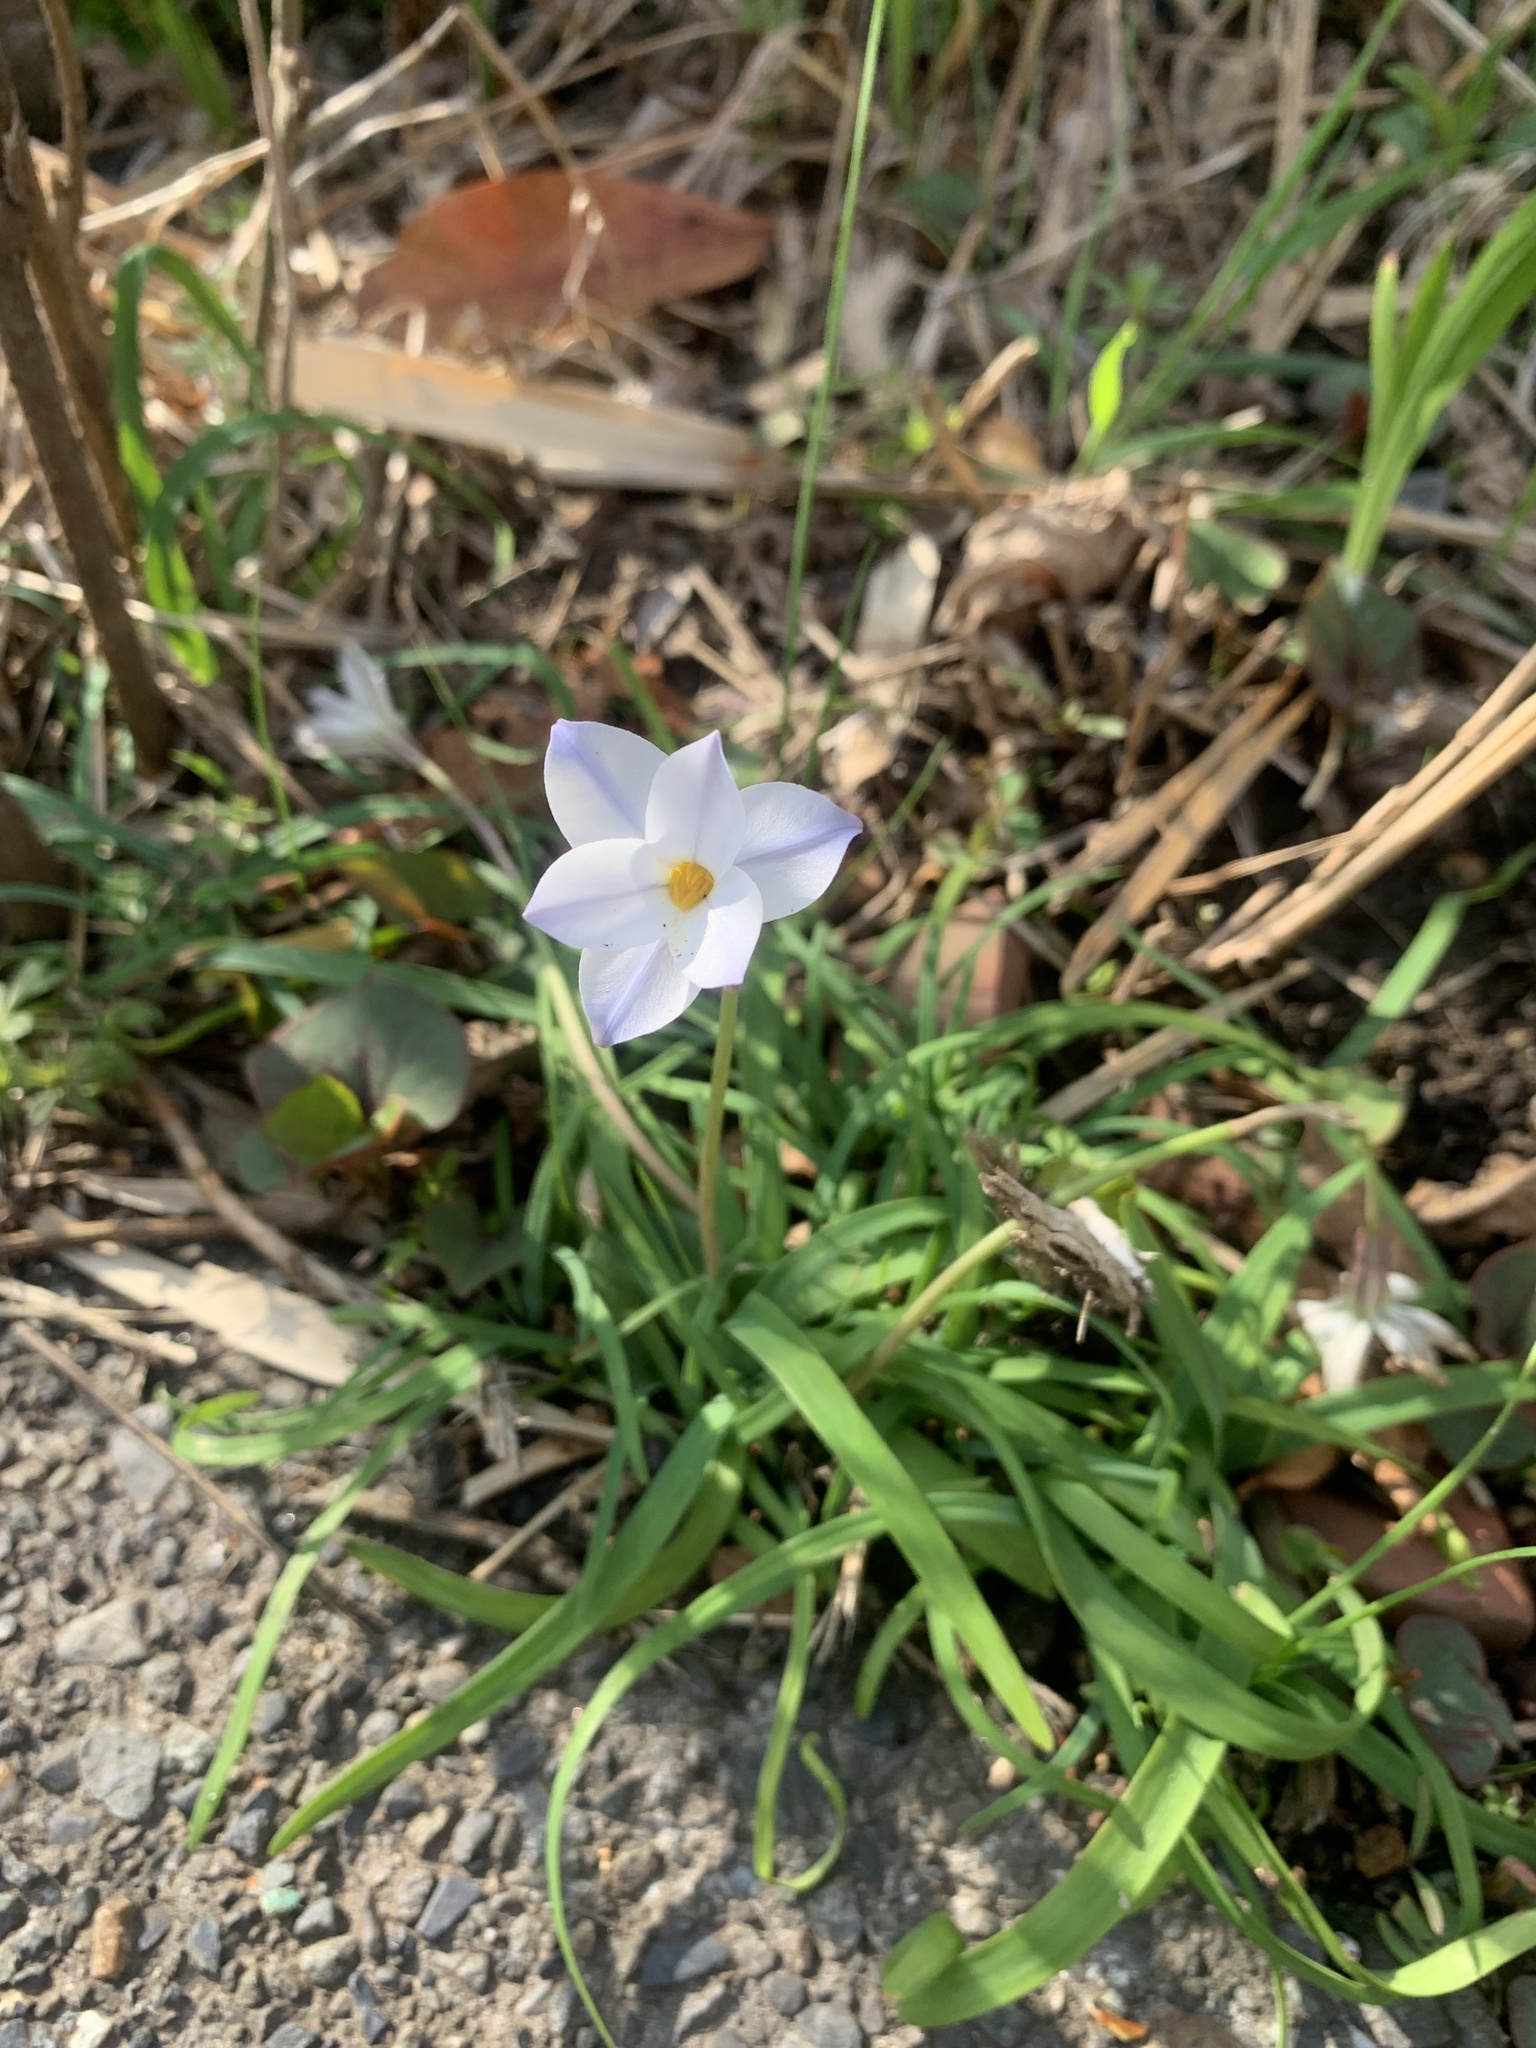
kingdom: Plantae
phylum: Tracheophyta
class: Liliopsida
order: Asparagales
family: Amaryllidaceae
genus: Ipheion
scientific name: Ipheion uniflorum
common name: Spring starflower
